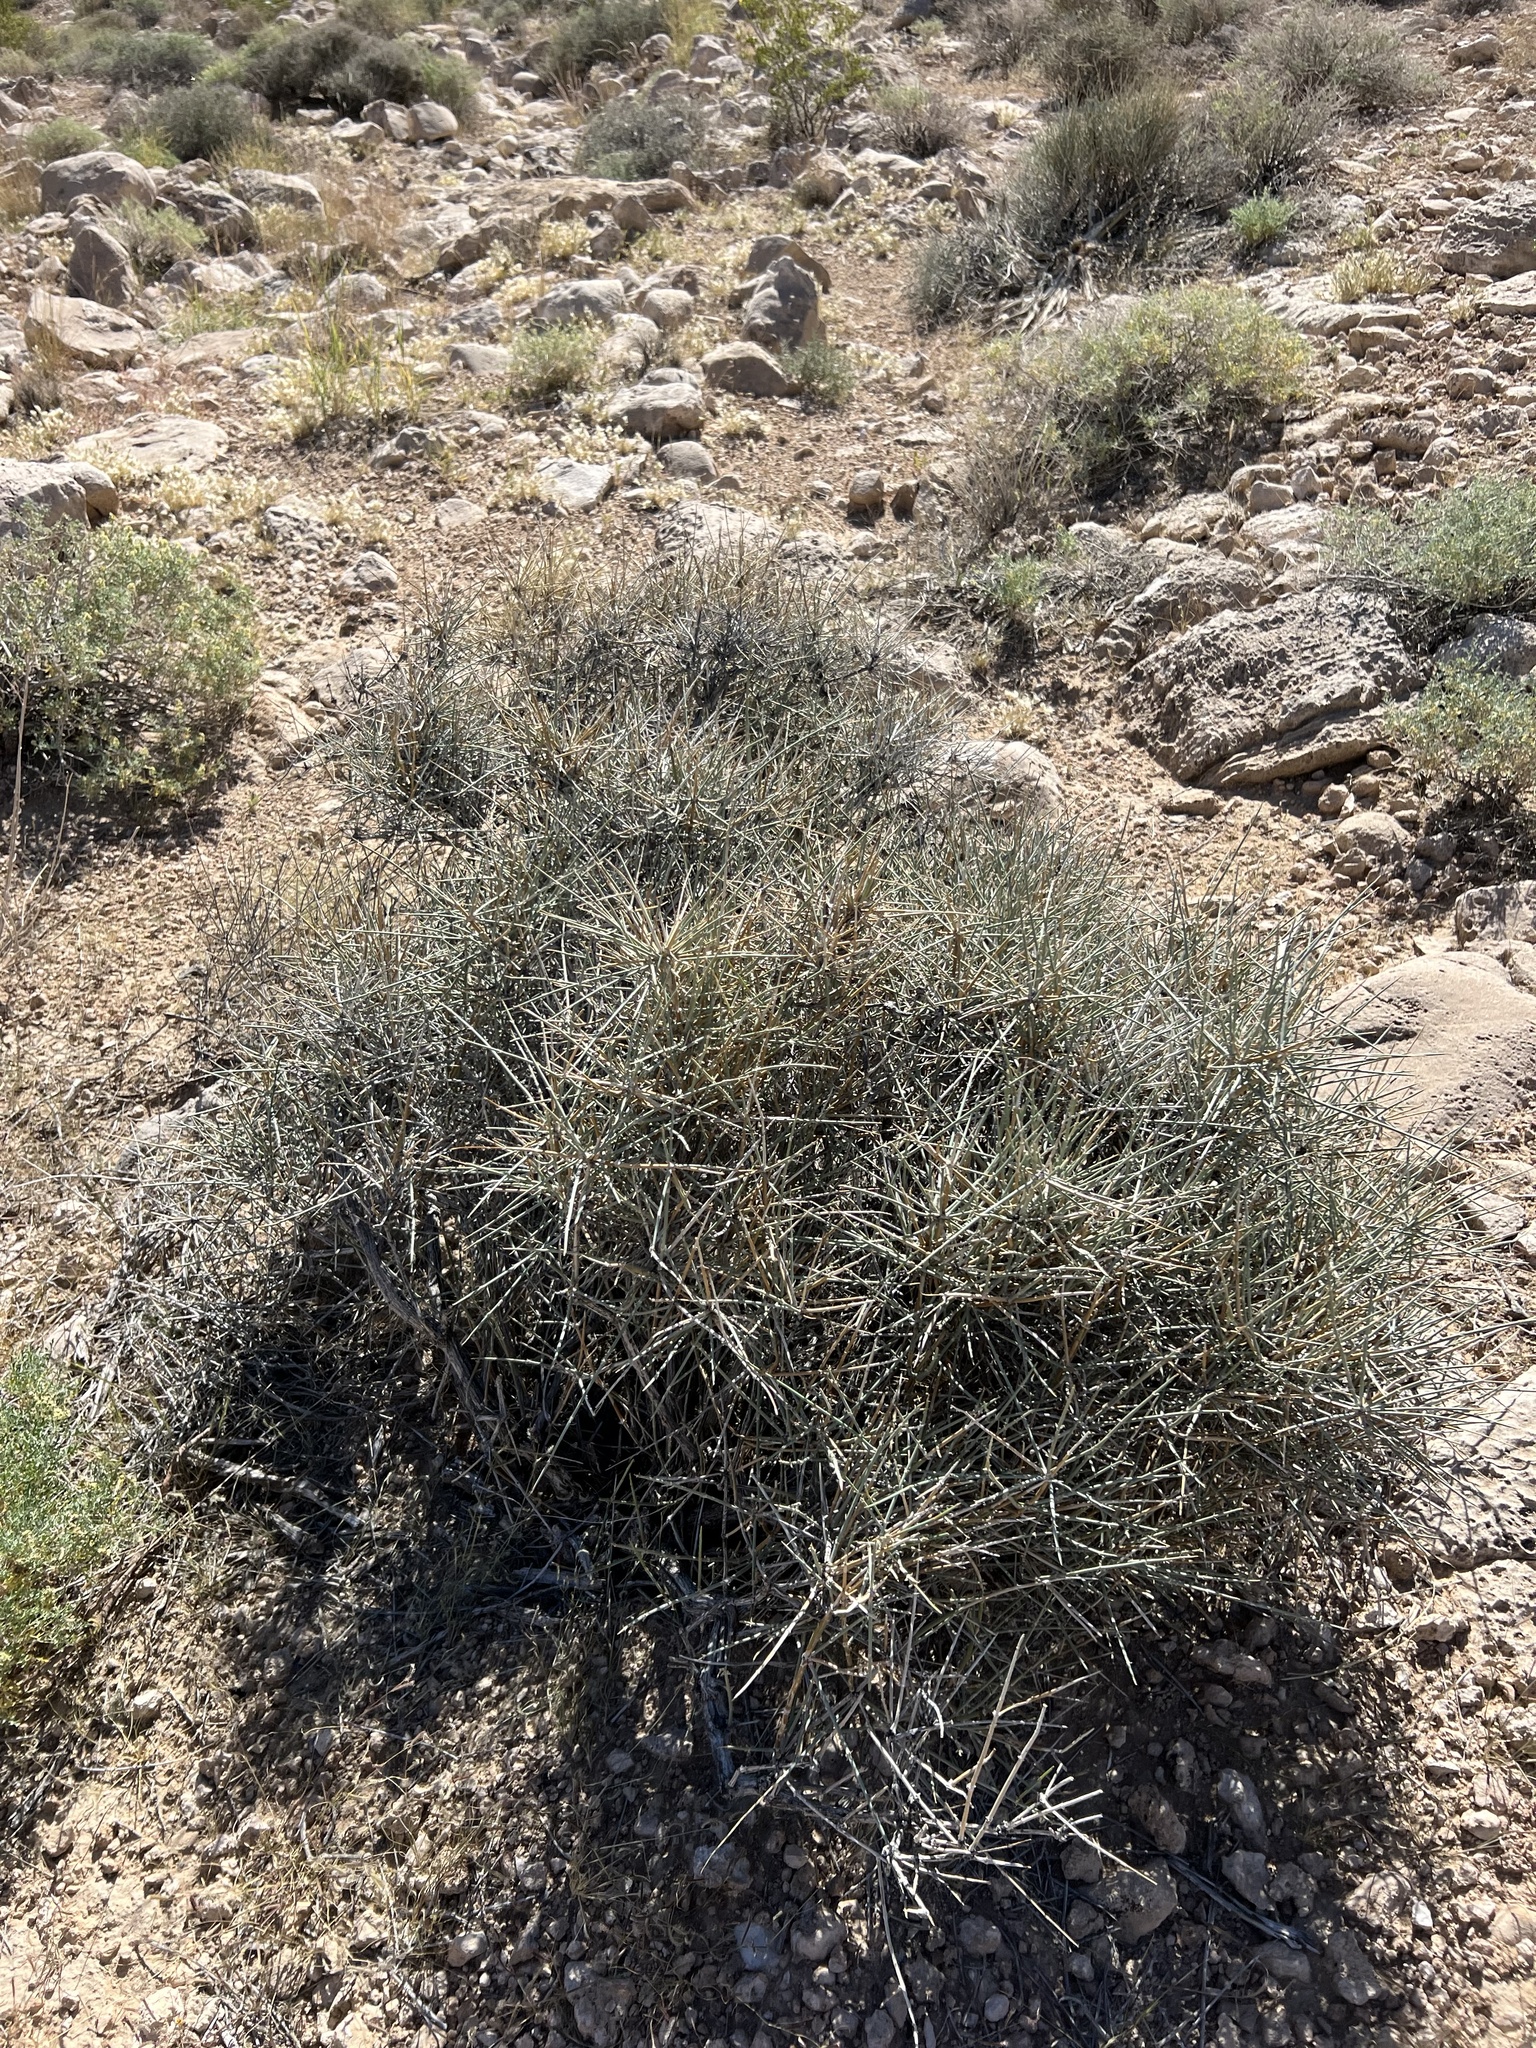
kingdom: Plantae
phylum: Tracheophyta
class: Gnetopsida
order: Ephedrales
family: Ephedraceae
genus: Ephedra
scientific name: Ephedra nevadensis
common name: Gray ephedra
